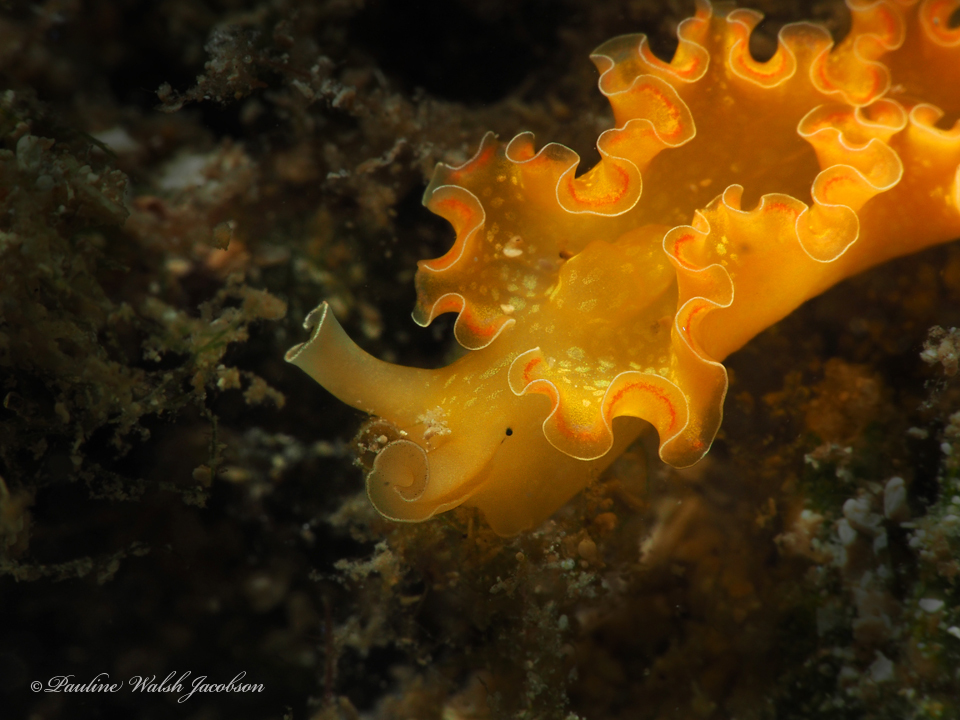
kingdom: Animalia
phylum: Mollusca
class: Gastropoda
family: Plakobranchidae
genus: Elysia
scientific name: Elysia crispata
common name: Lettuce slug
